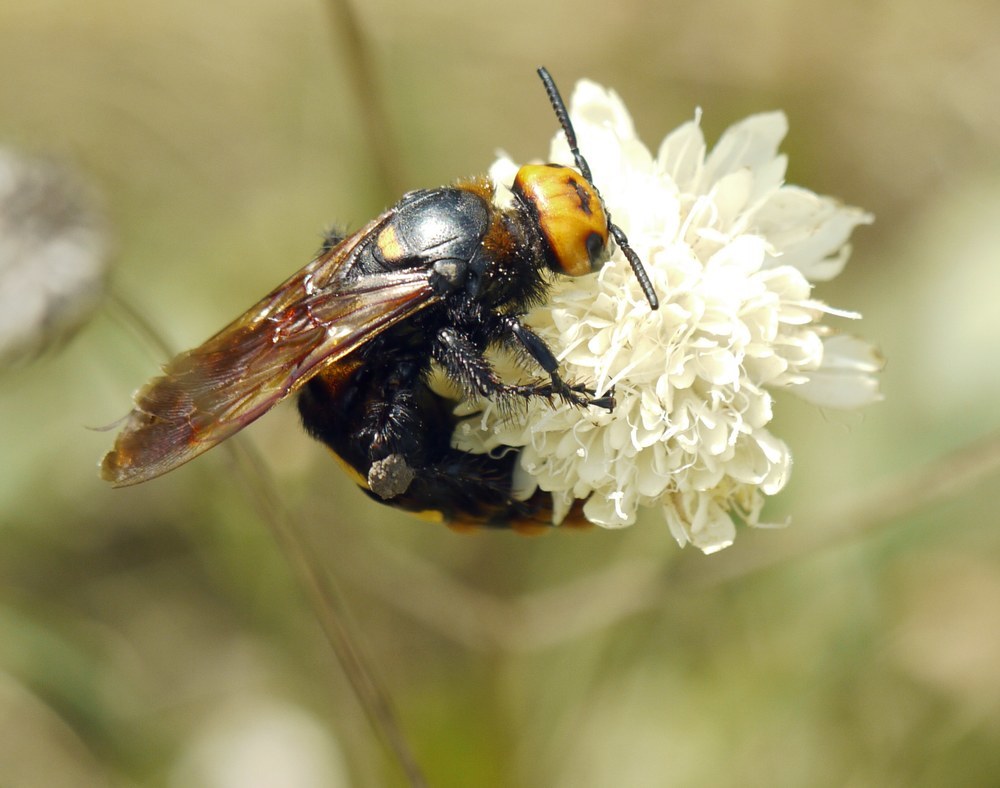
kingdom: Animalia
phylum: Arthropoda
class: Insecta
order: Hymenoptera
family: Scoliidae
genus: Megascolia
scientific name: Megascolia maculata
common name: Mammoth wasp
